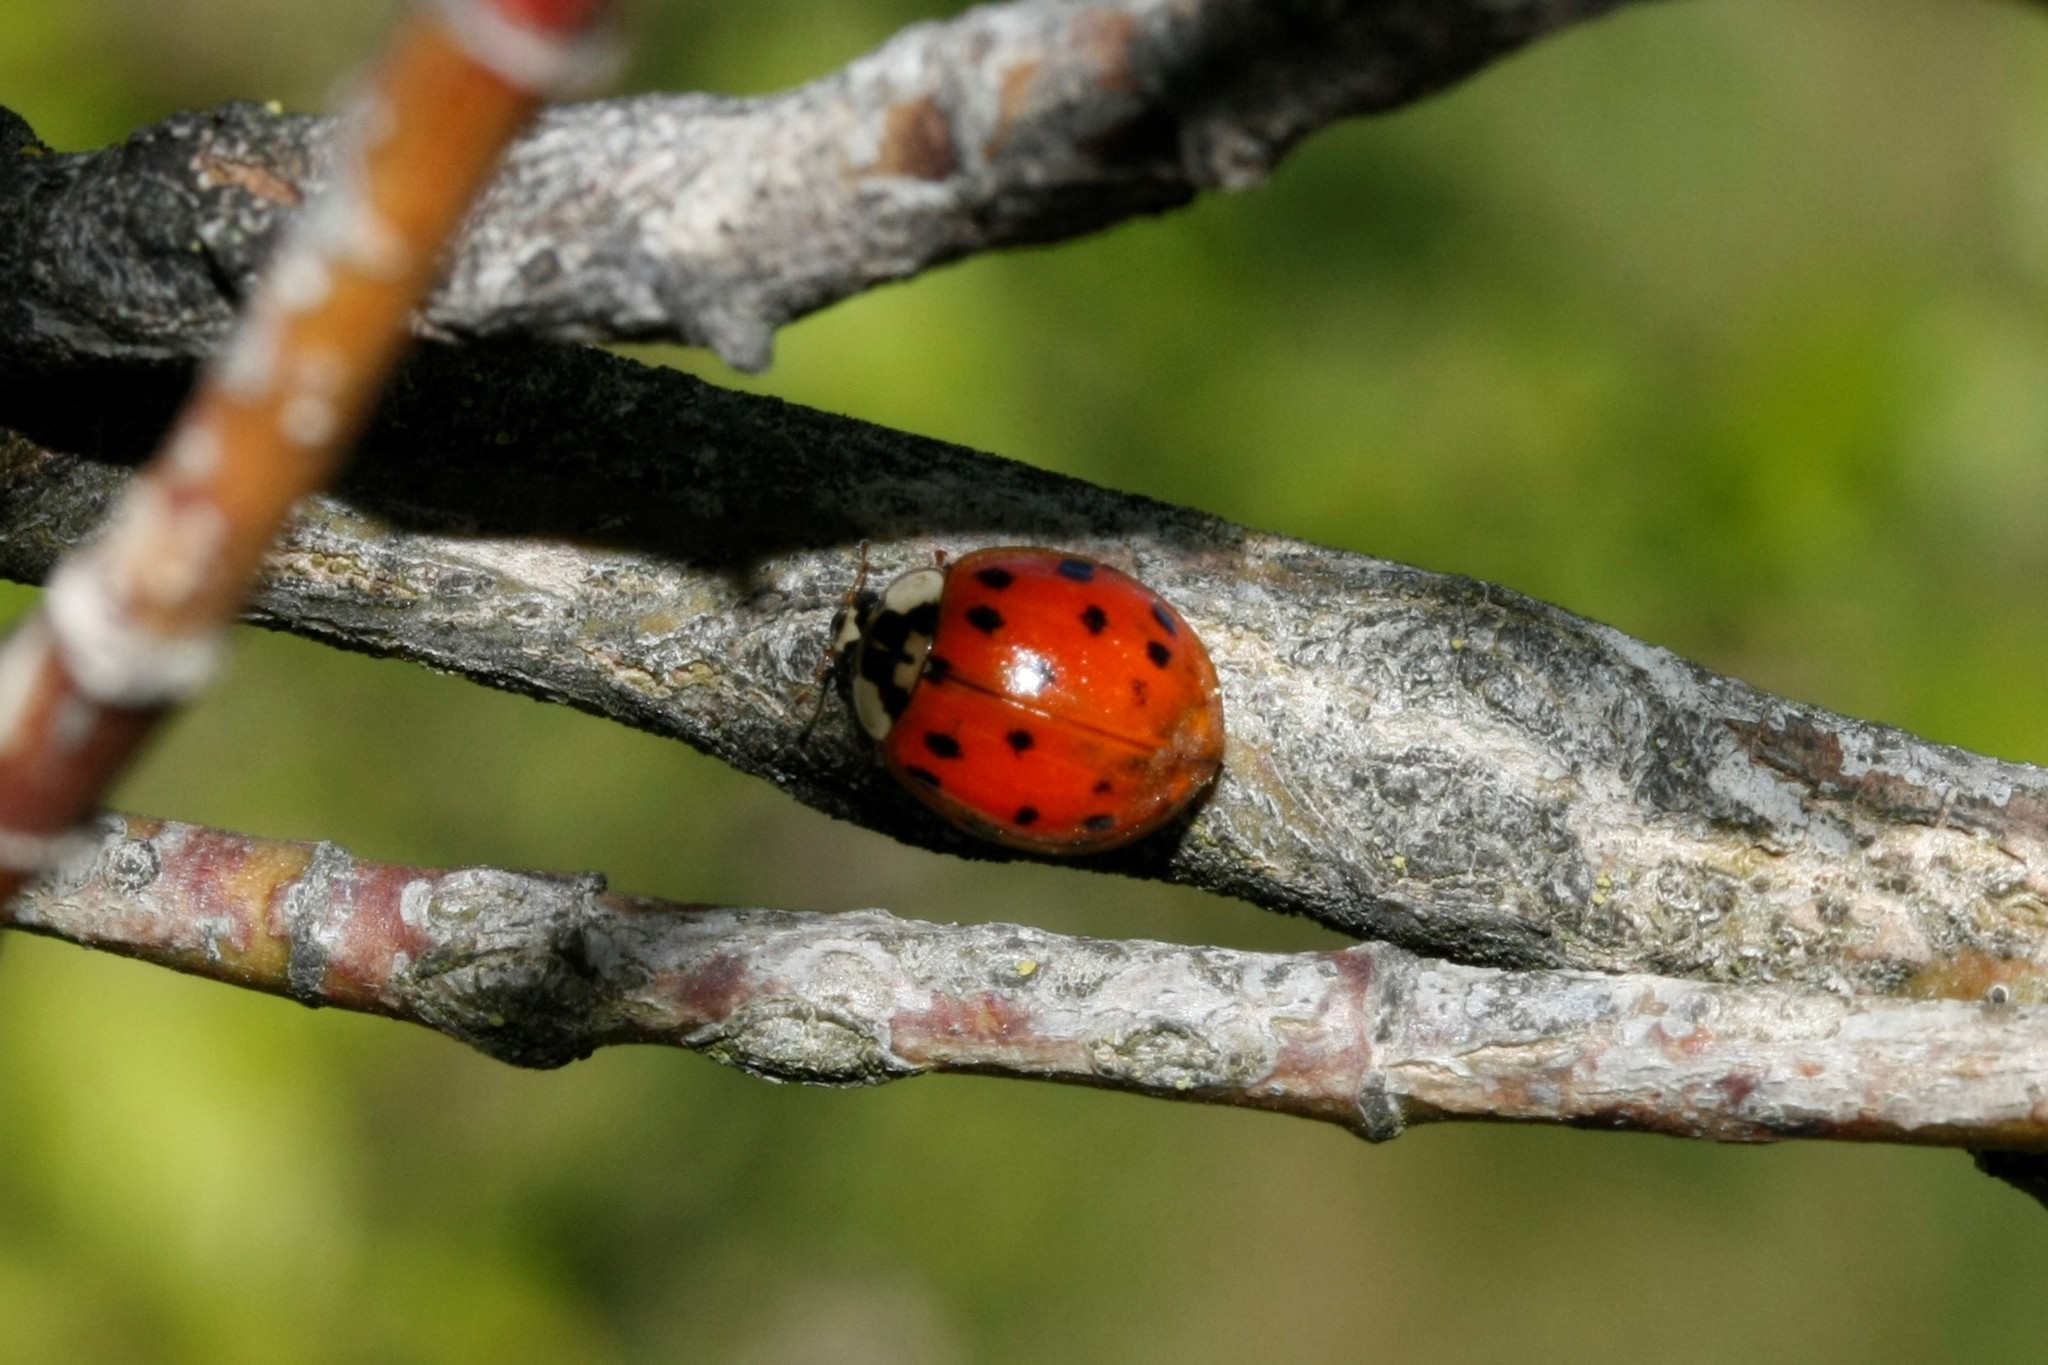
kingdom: Animalia
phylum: Arthropoda
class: Insecta
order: Coleoptera
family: Coccinellidae
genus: Harmonia
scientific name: Harmonia axyridis
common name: Harlequin ladybird
